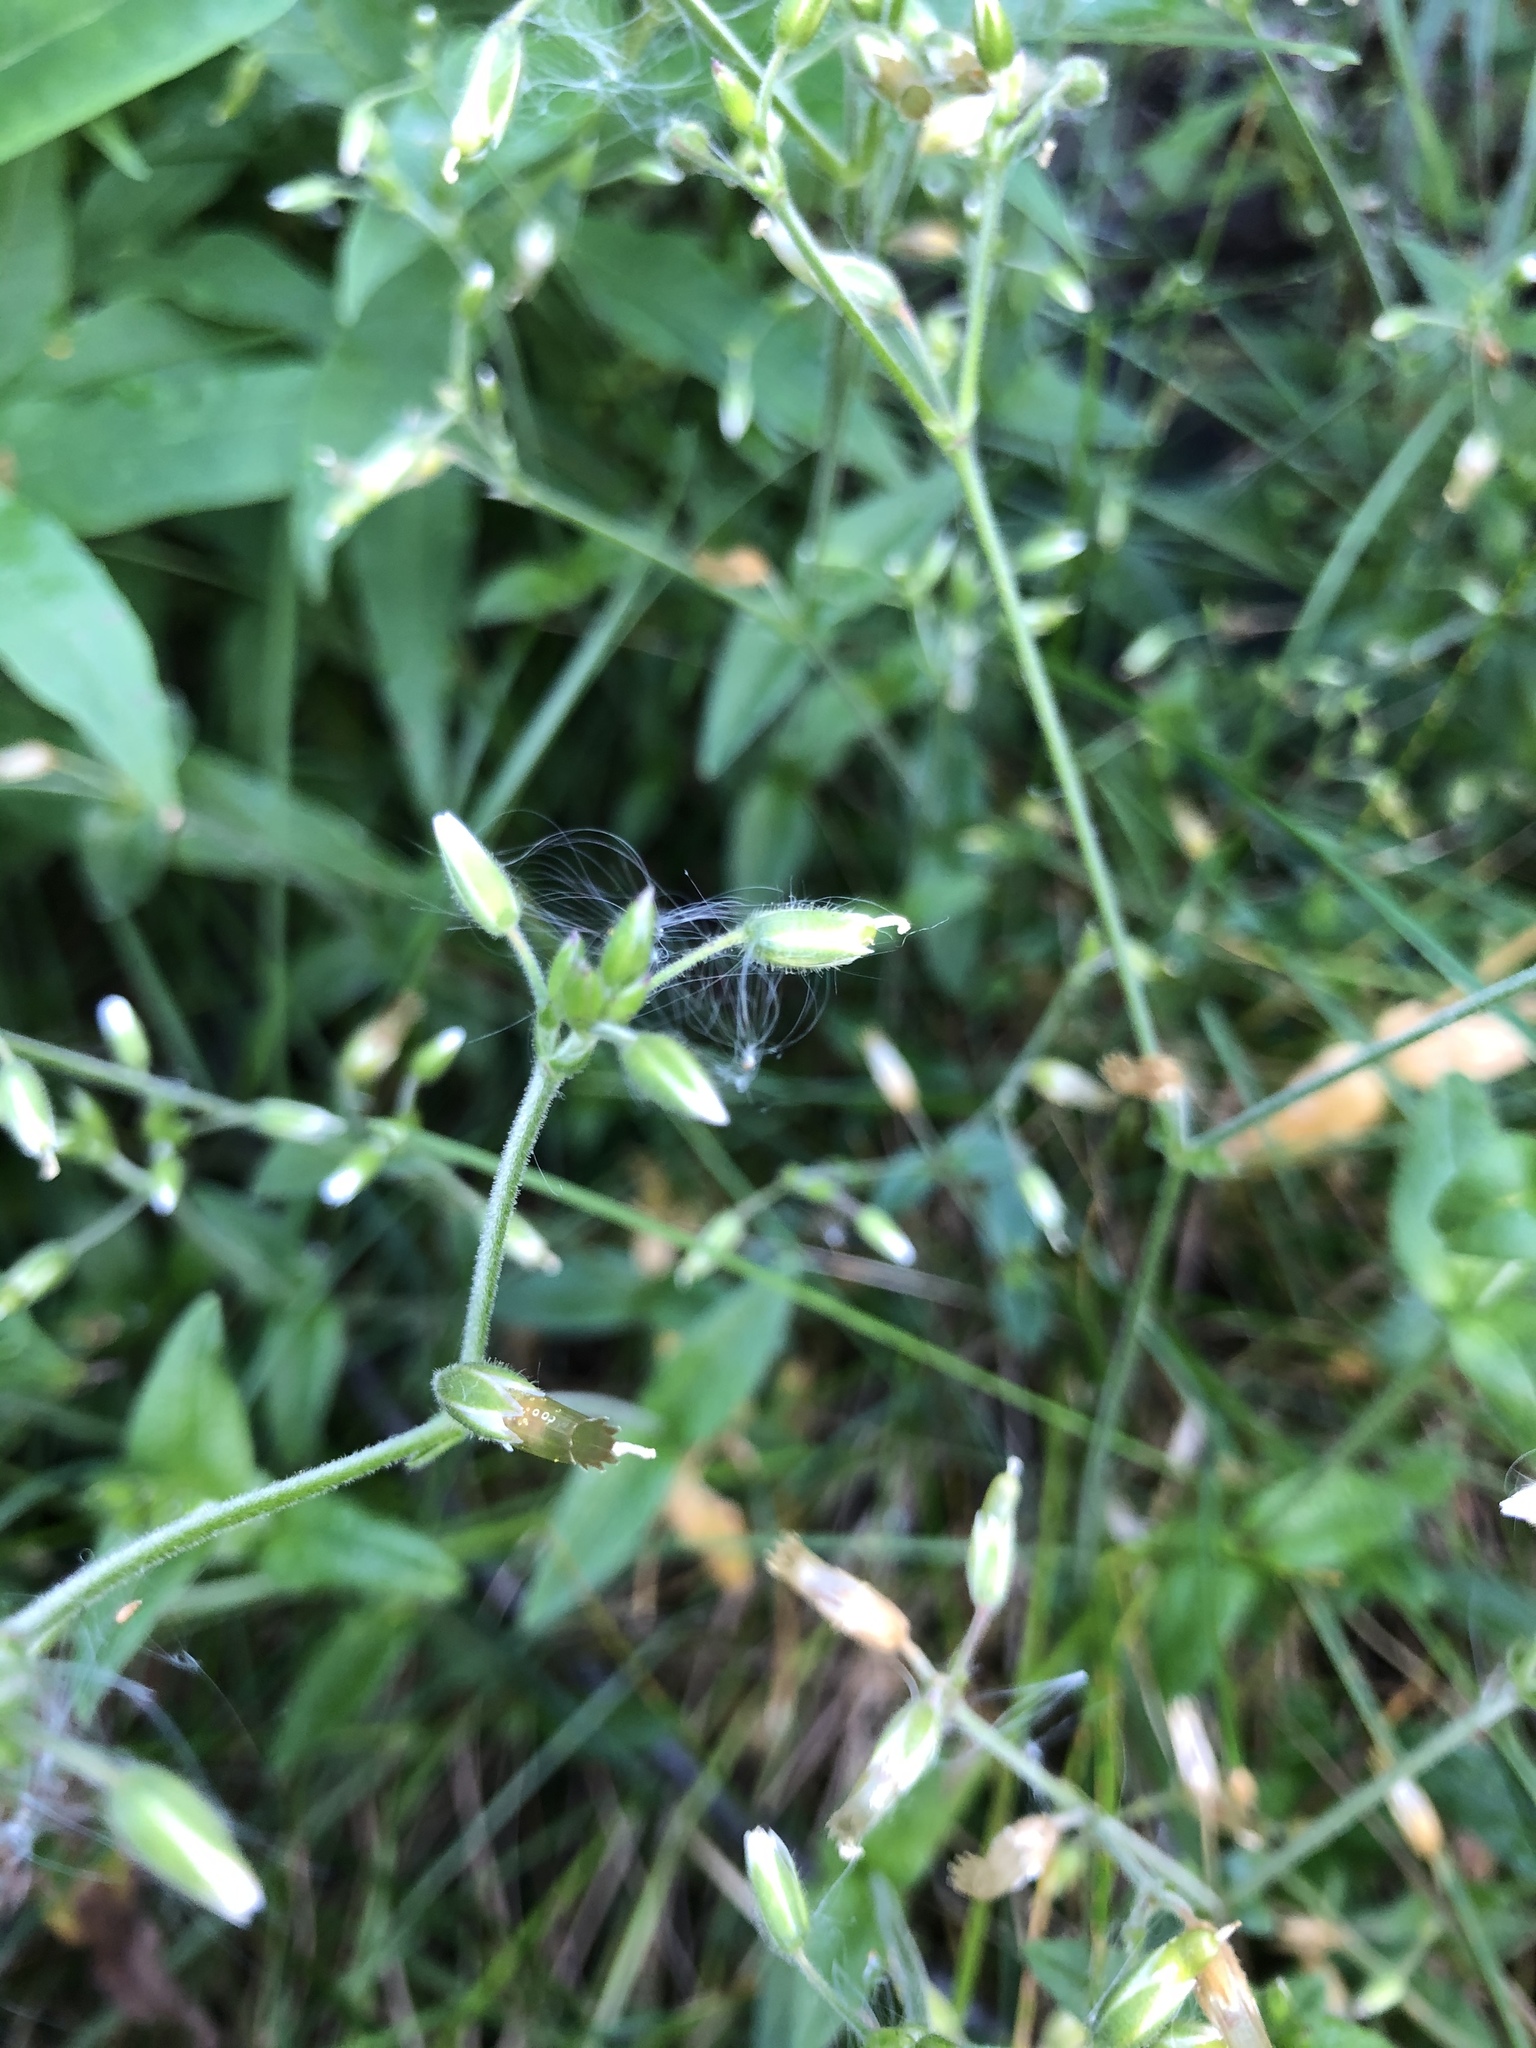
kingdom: Plantae
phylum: Tracheophyta
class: Magnoliopsida
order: Caryophyllales
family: Caryophyllaceae
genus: Cerastium
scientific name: Cerastium holosteoides
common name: Big chickweed
